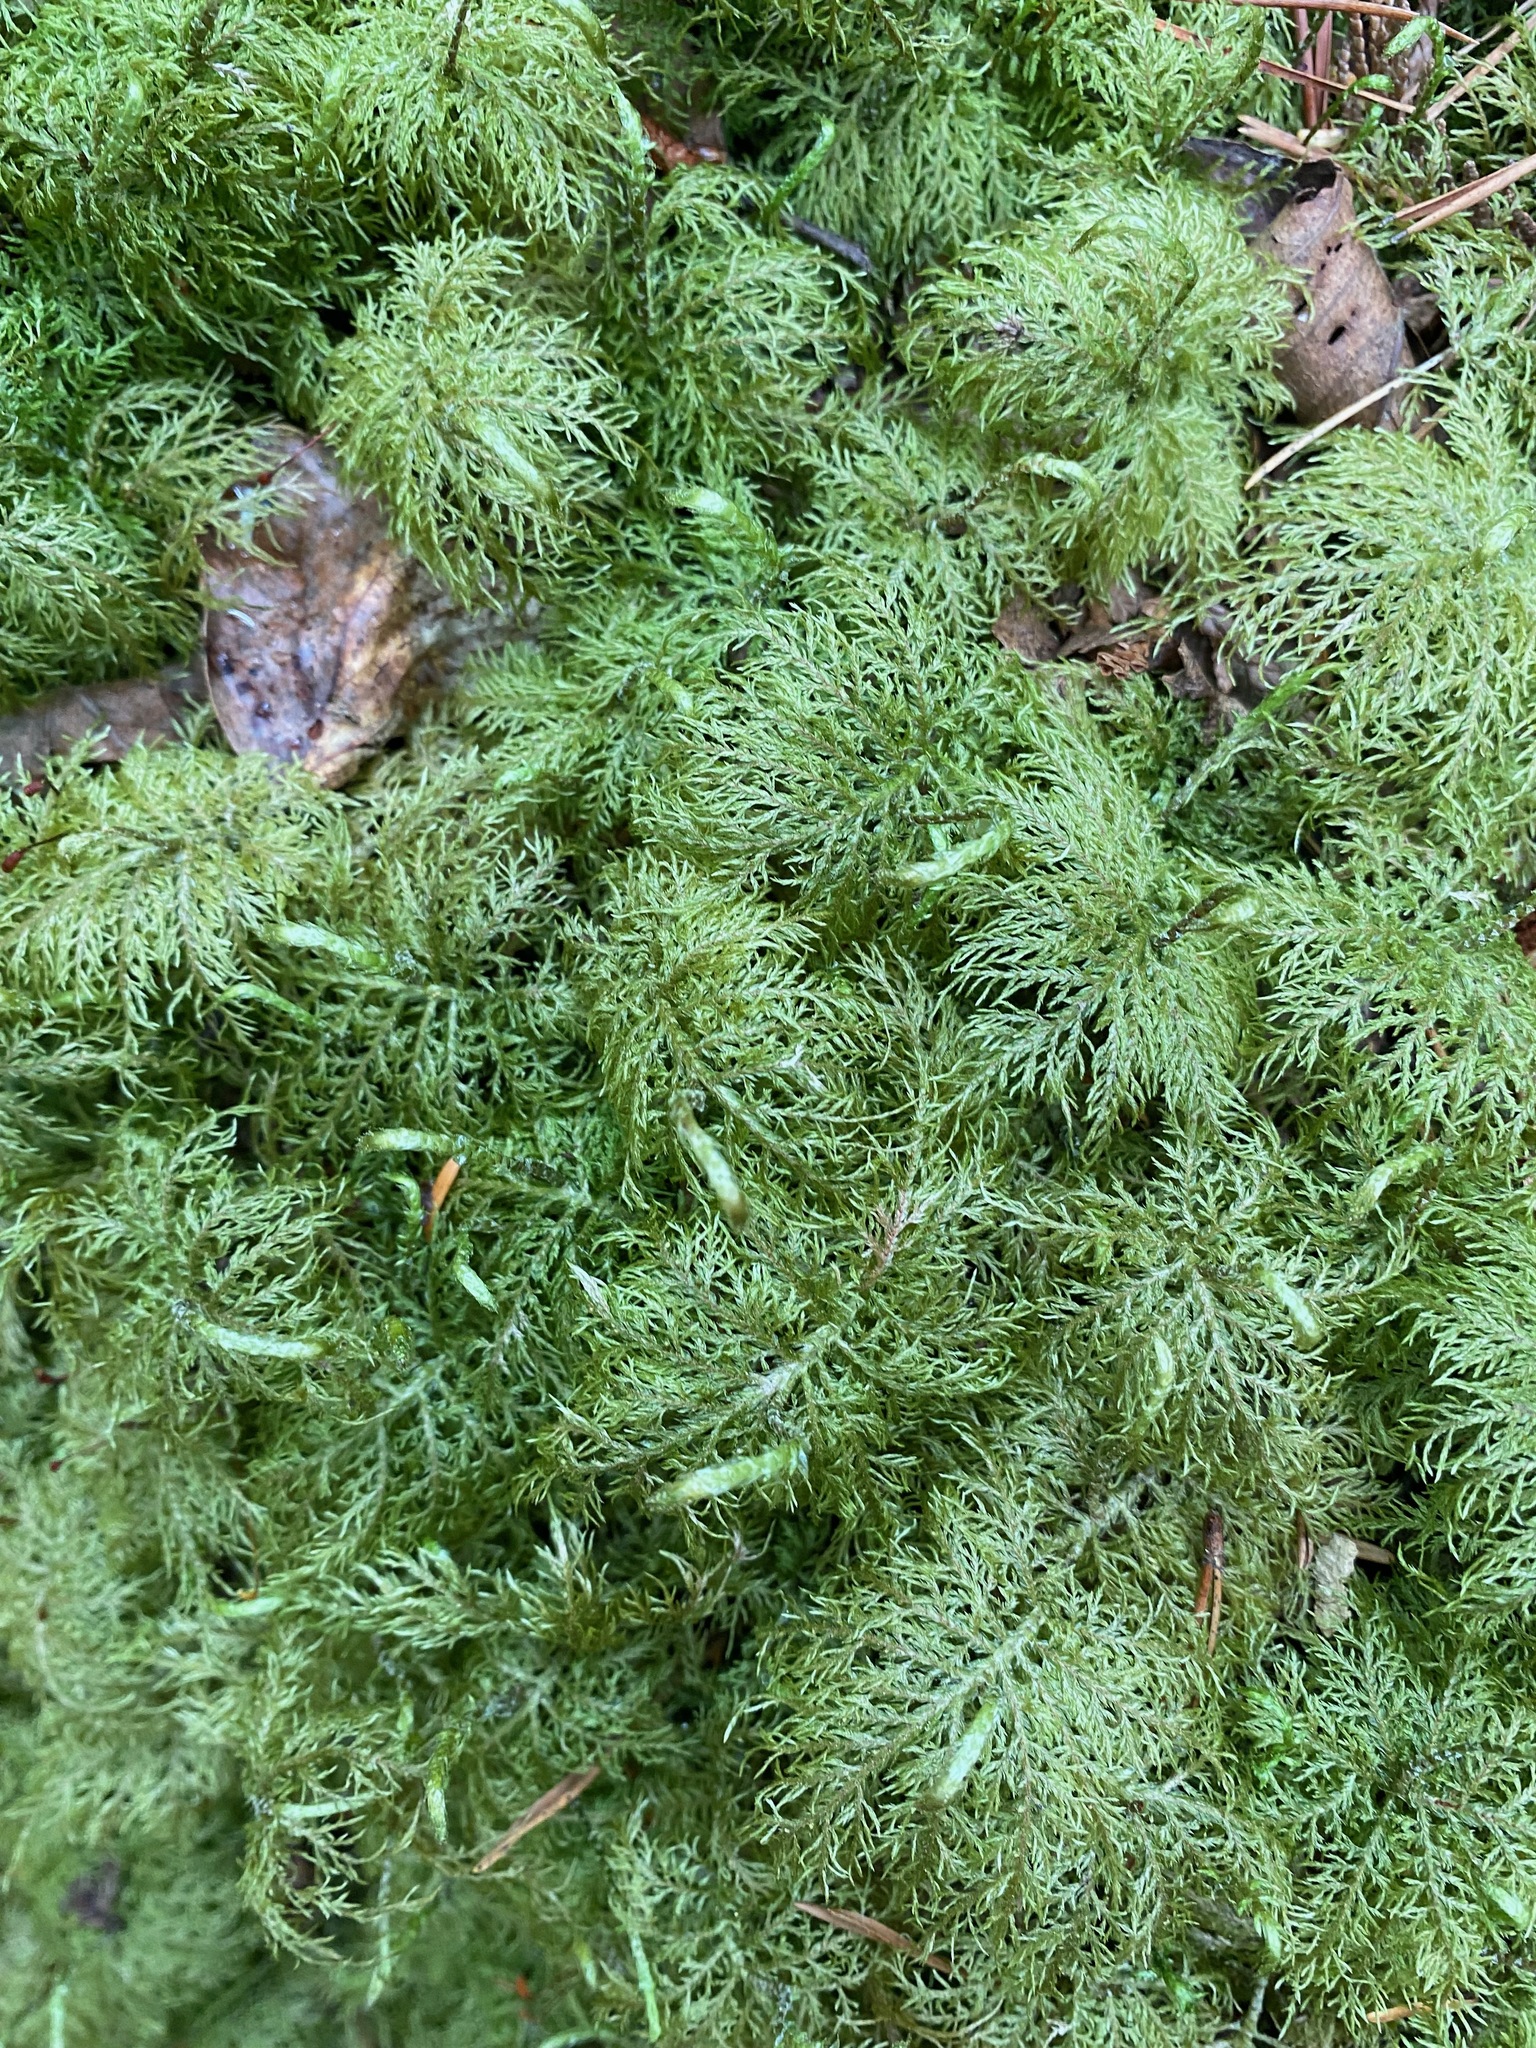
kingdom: Plantae
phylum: Bryophyta
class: Bryopsida
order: Hypnales
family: Hylocomiaceae
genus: Hylocomium
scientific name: Hylocomium splendens
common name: Stairstep moss
